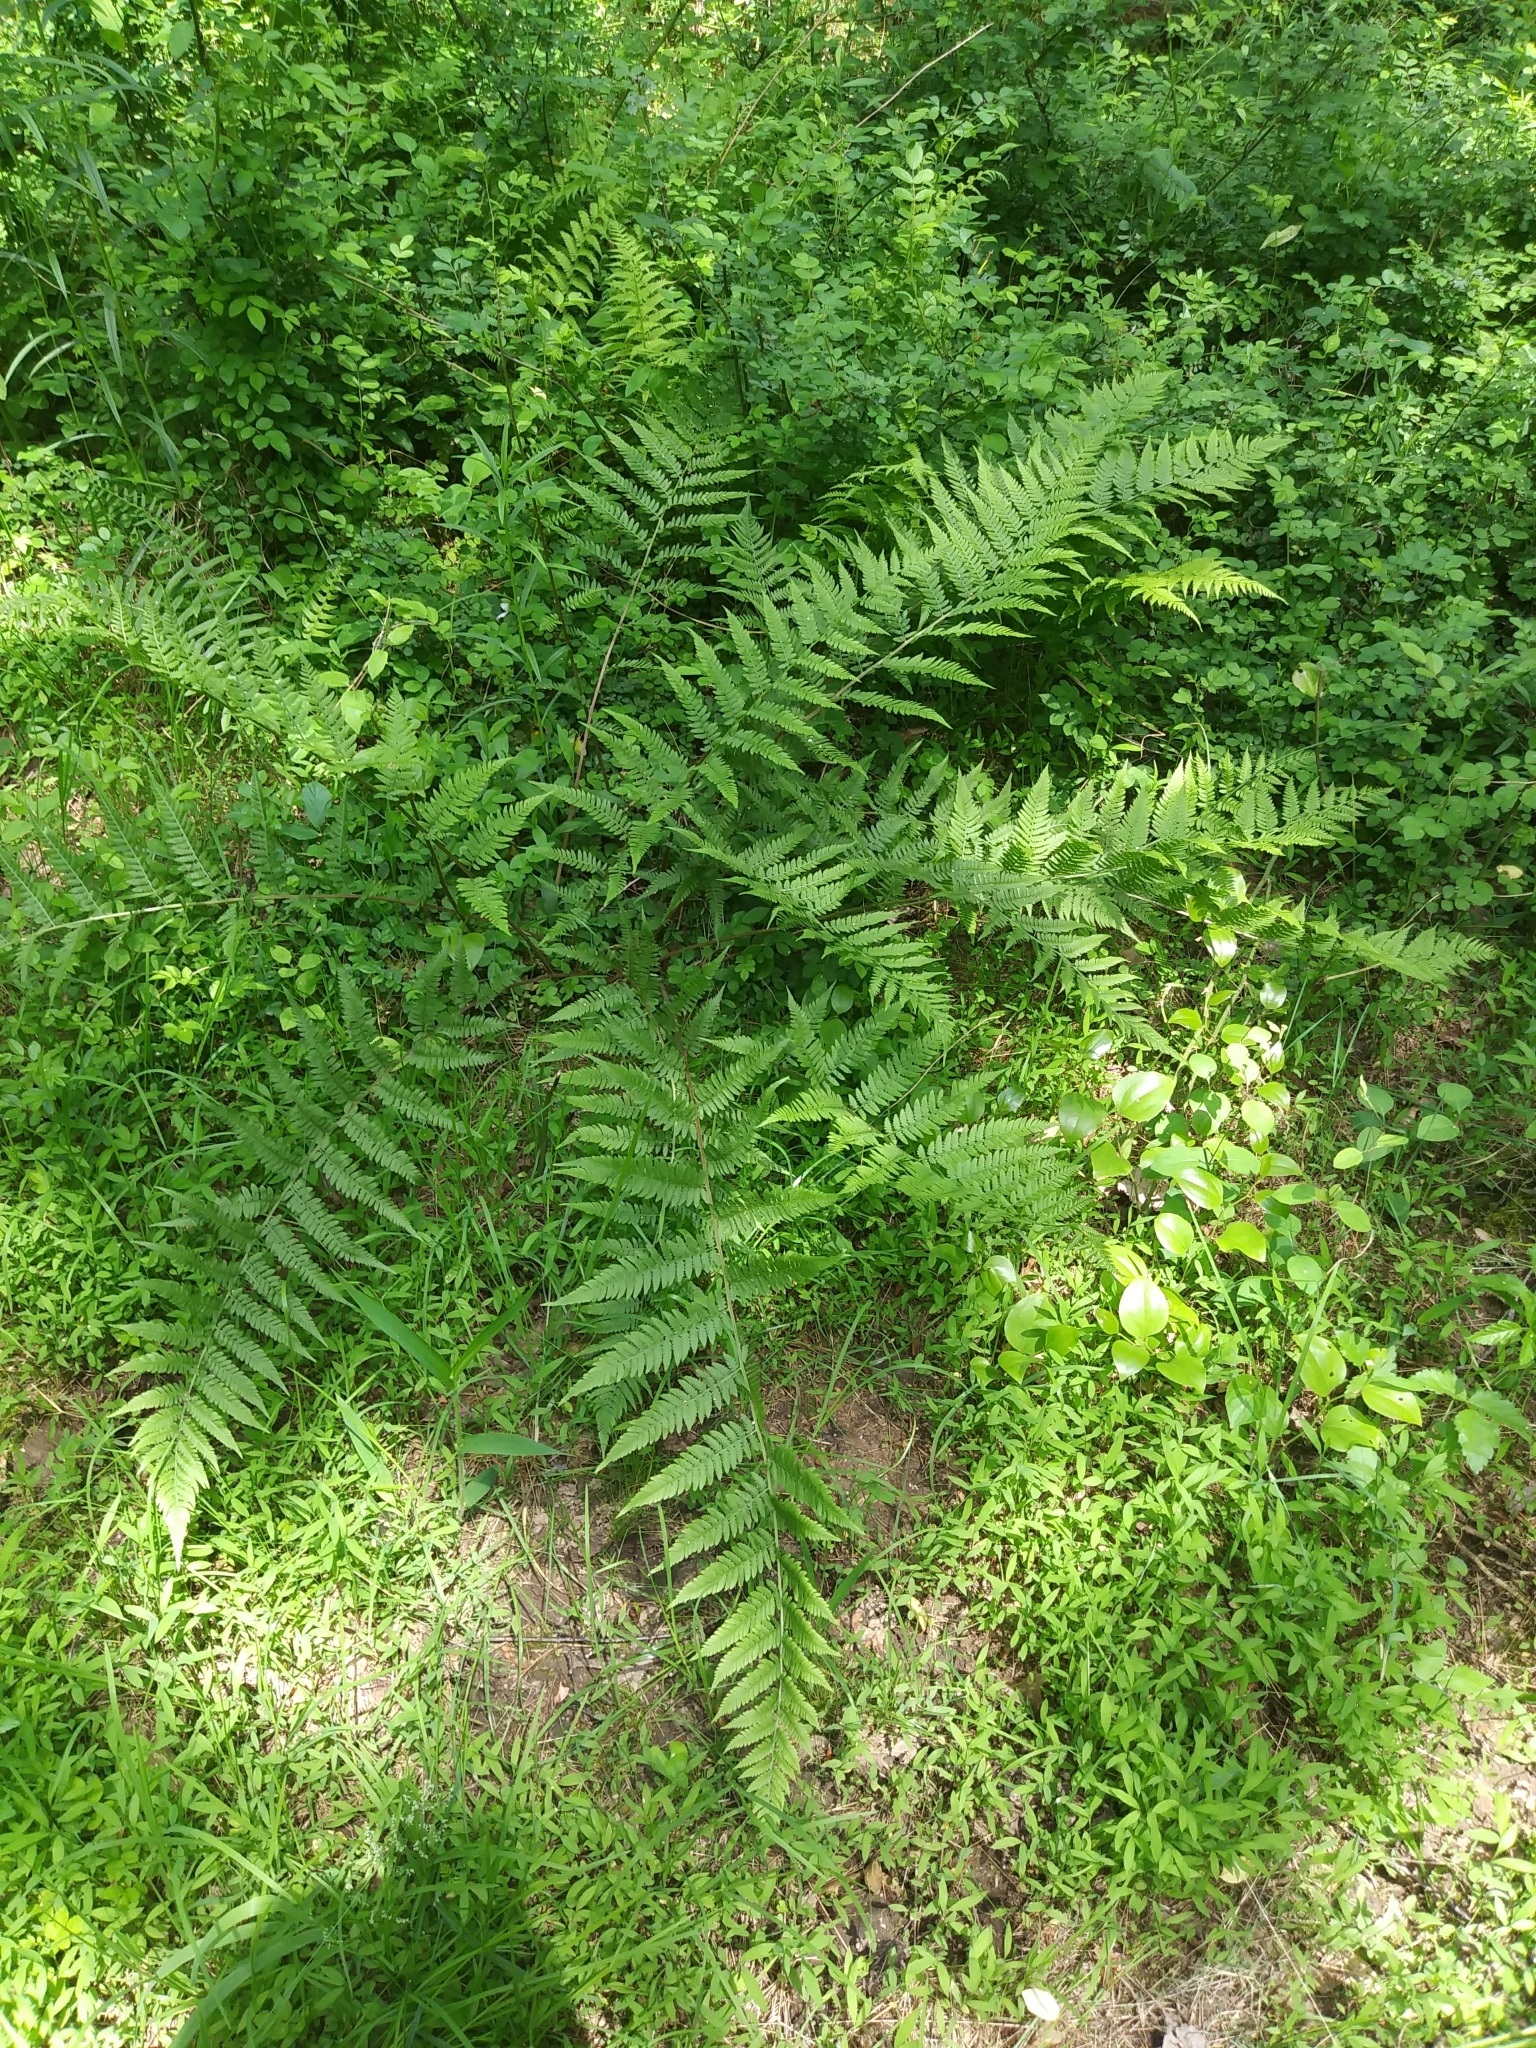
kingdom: Plantae
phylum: Tracheophyta
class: Polypodiopsida
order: Polypodiales
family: Athyriaceae
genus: Athyrium
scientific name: Athyrium angustum
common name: Northern lady fern
